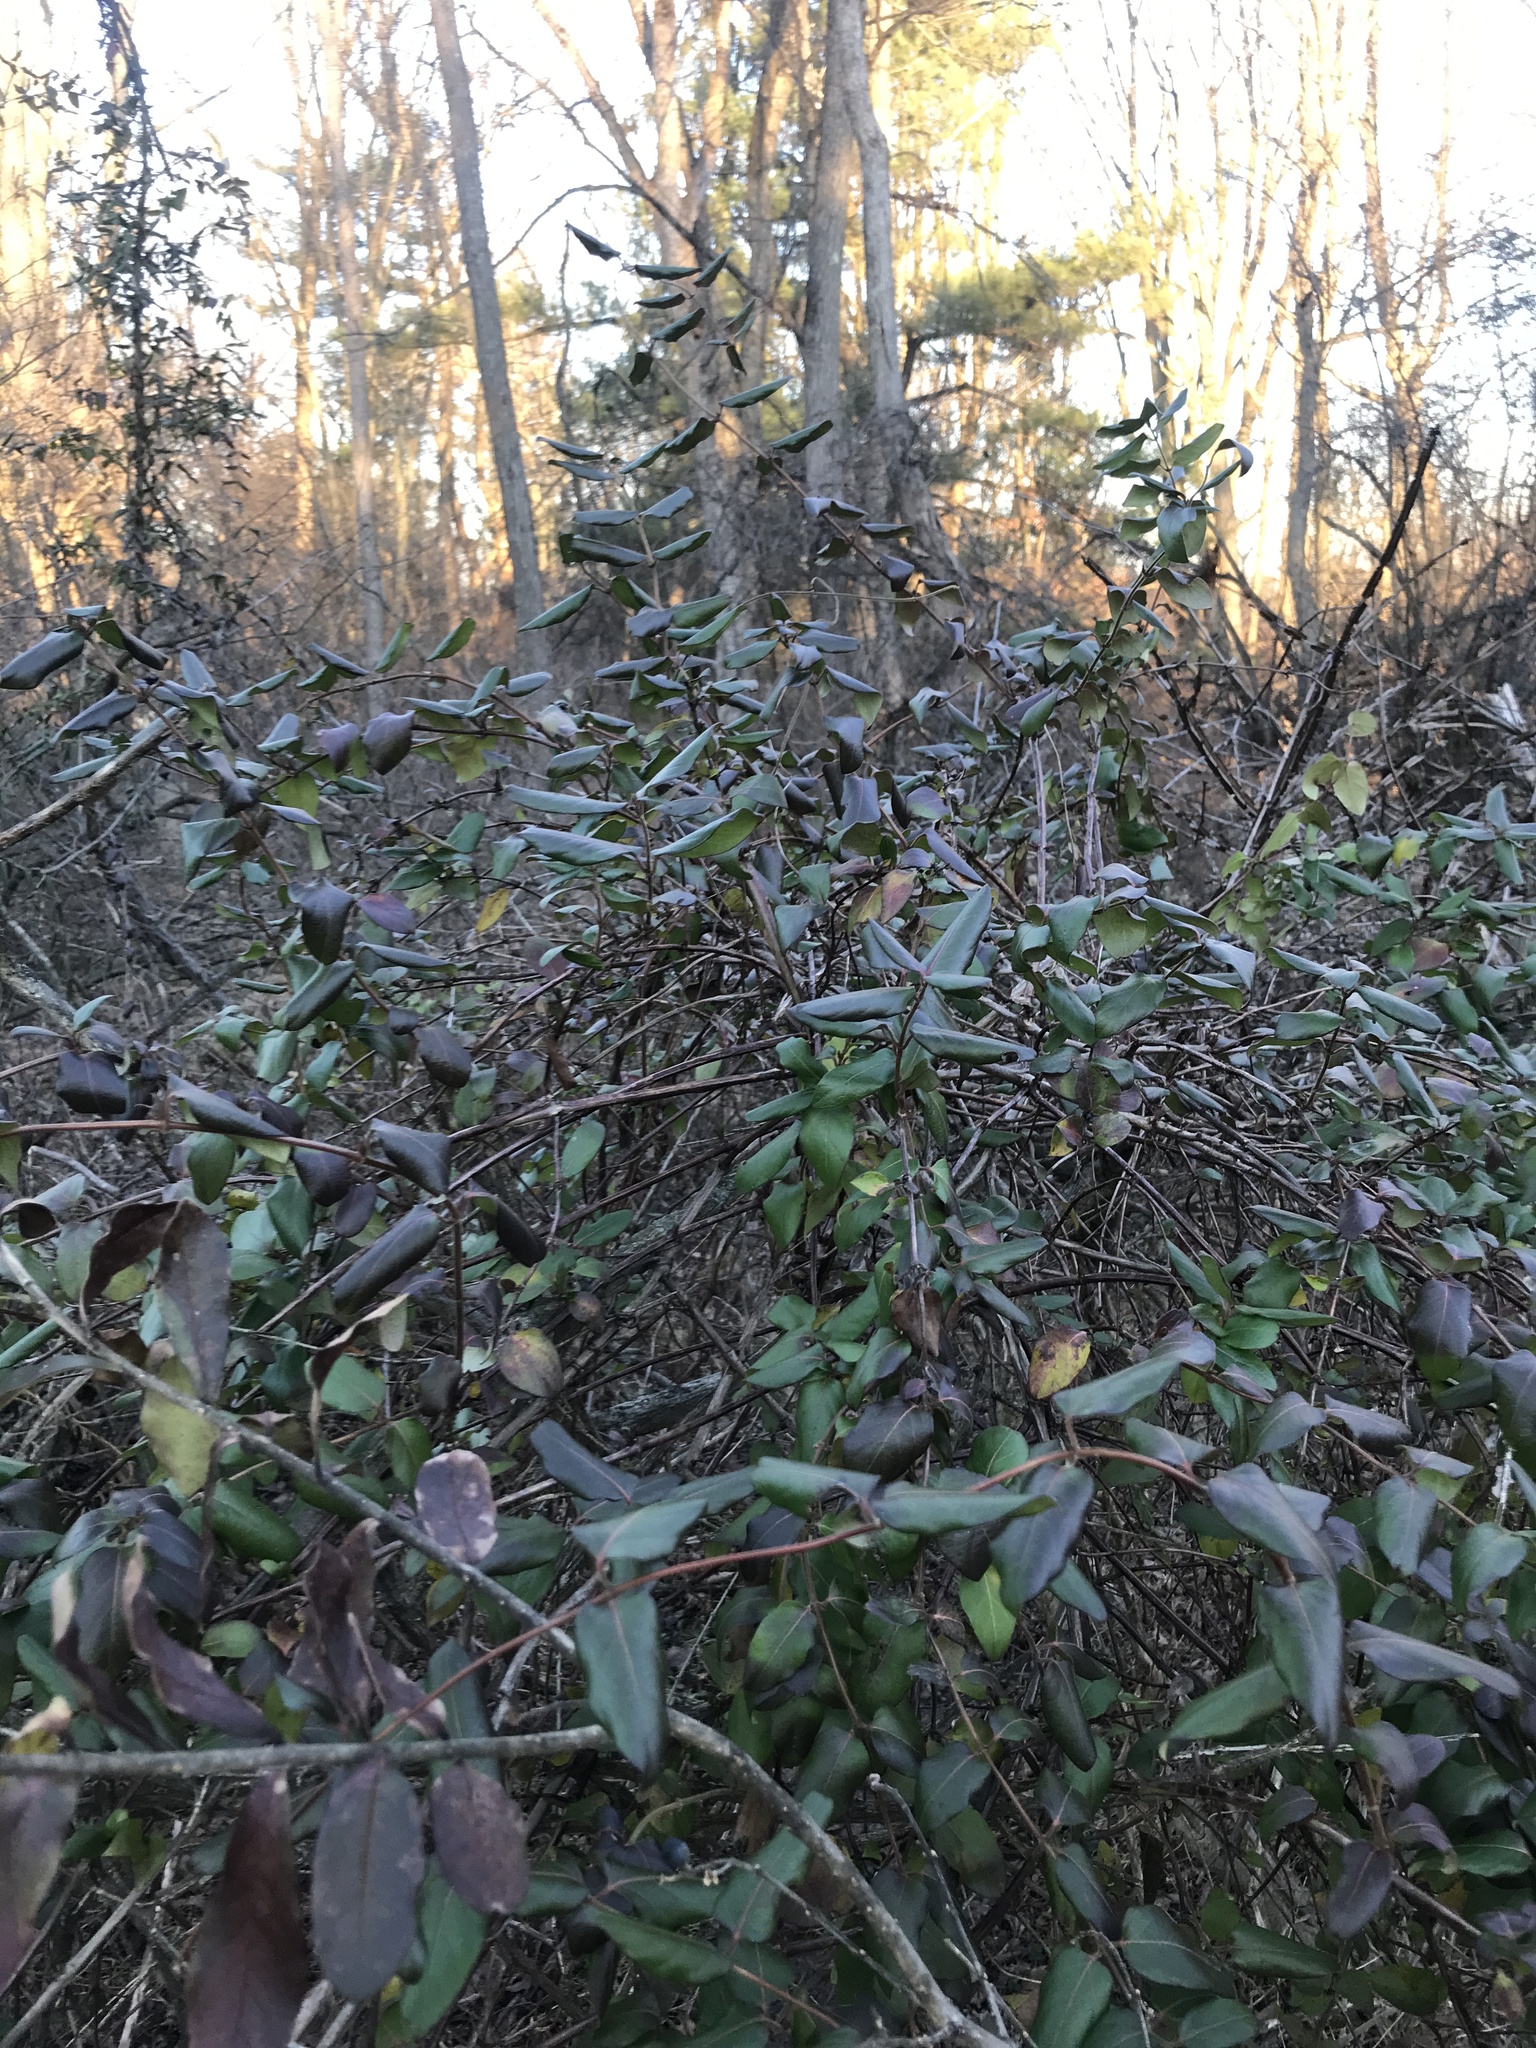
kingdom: Plantae
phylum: Tracheophyta
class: Magnoliopsida
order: Dipsacales
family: Caprifoliaceae
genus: Lonicera
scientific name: Lonicera japonica
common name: Japanese honeysuckle
